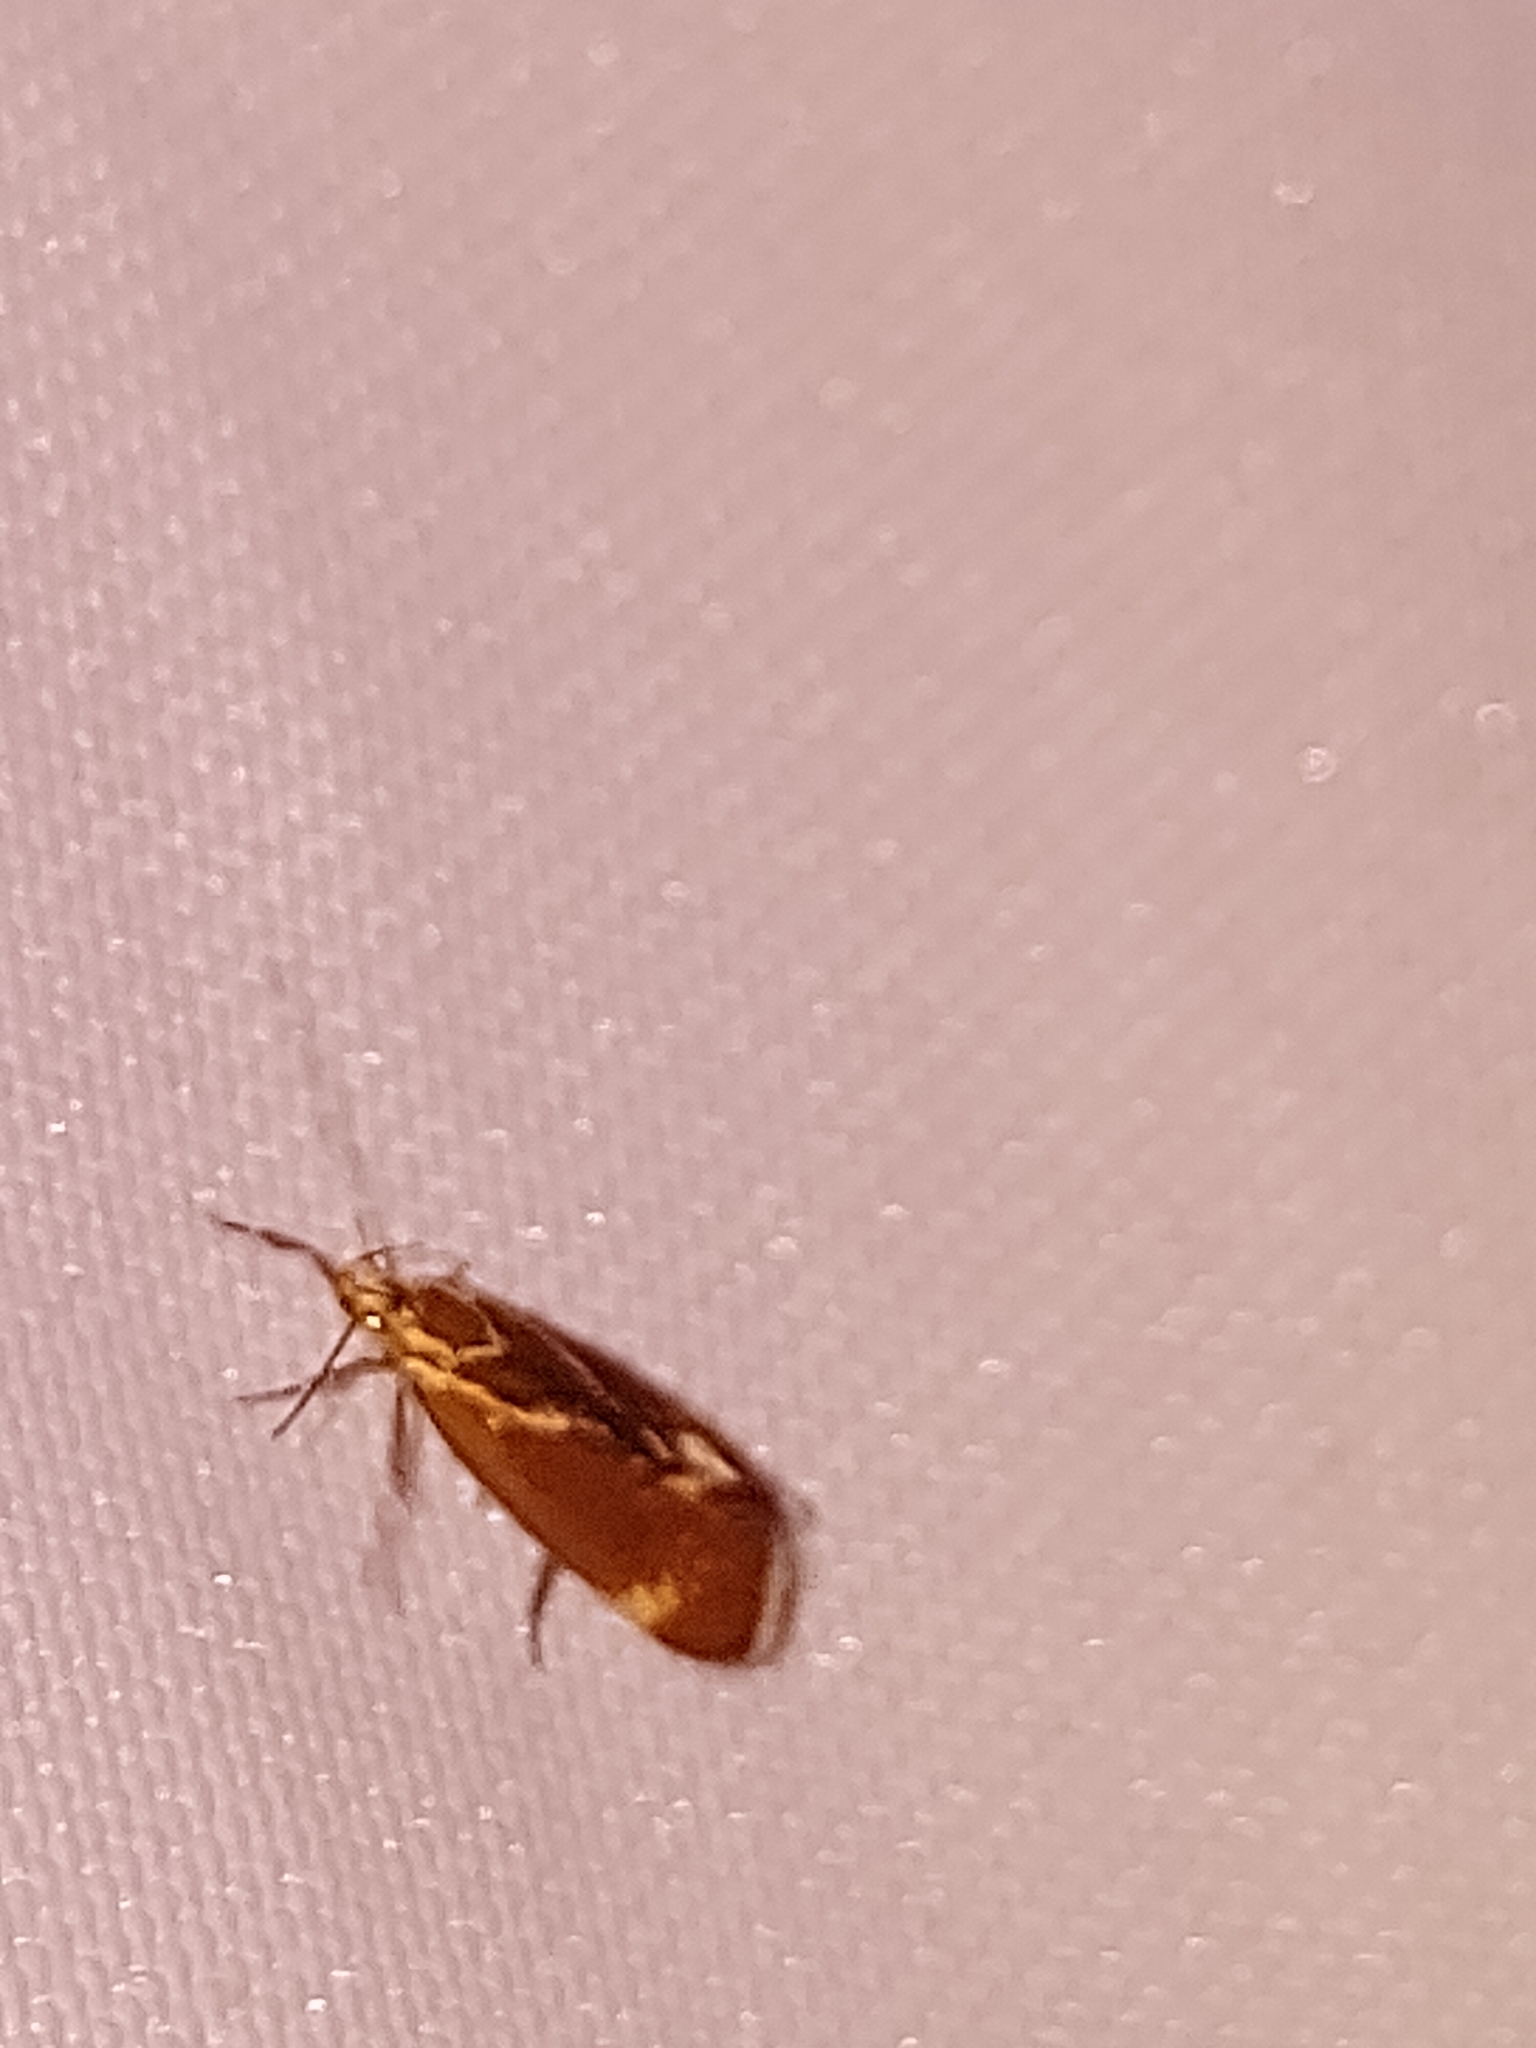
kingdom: Animalia
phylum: Arthropoda
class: Insecta
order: Lepidoptera
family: Oecophoridae
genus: Borkhausenia
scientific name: Borkhausenia italica
